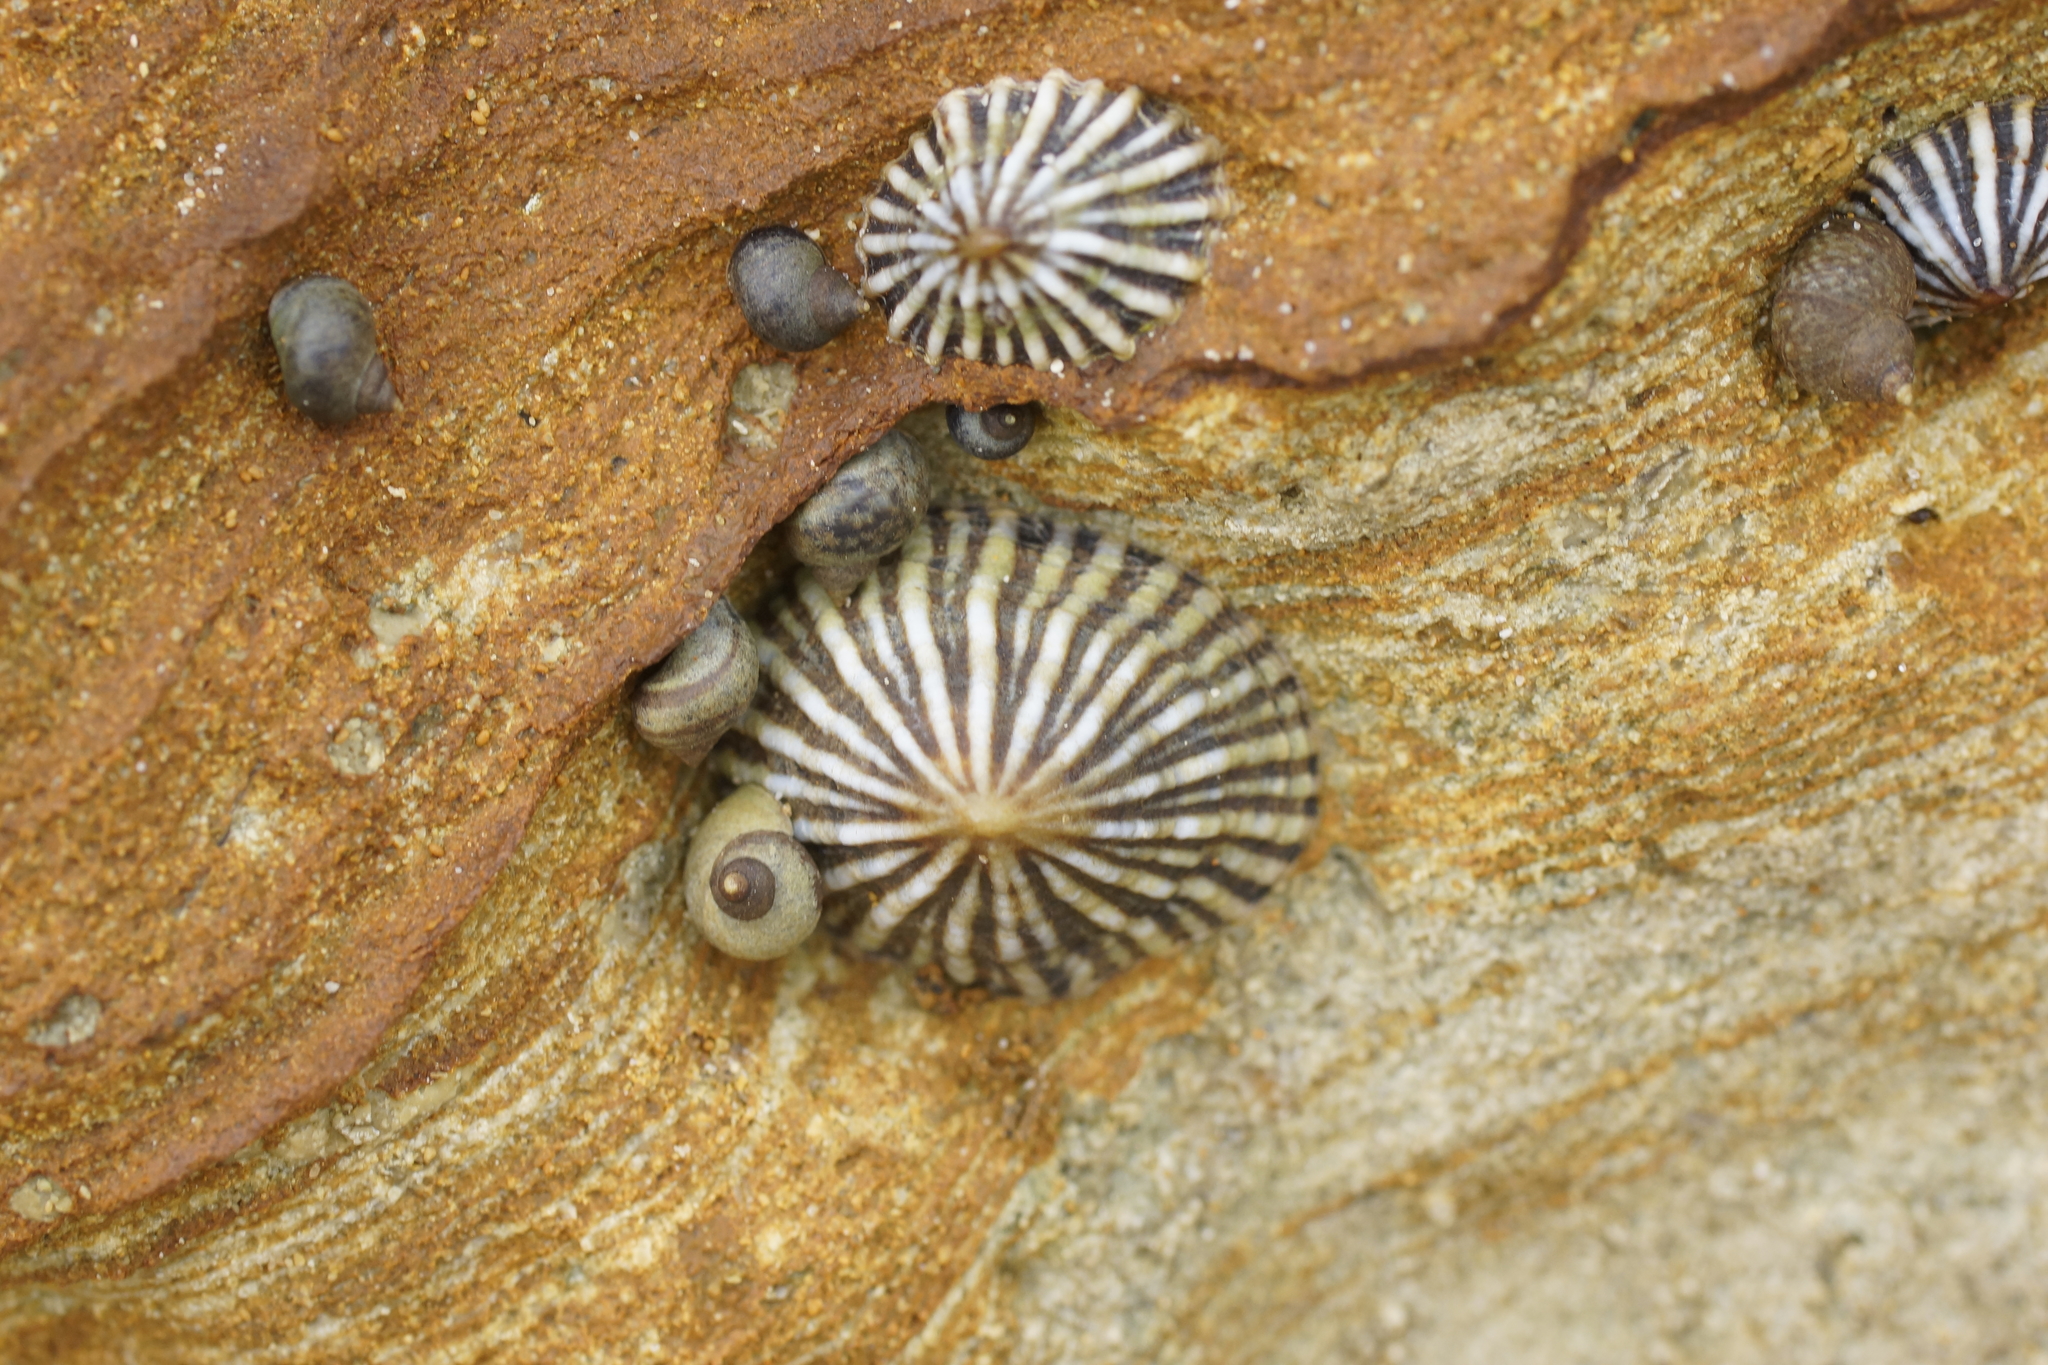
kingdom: Animalia
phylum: Mollusca
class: Gastropoda
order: Siphonariida
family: Siphonariidae
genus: Siphonaria
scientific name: Siphonaria diemenensis
